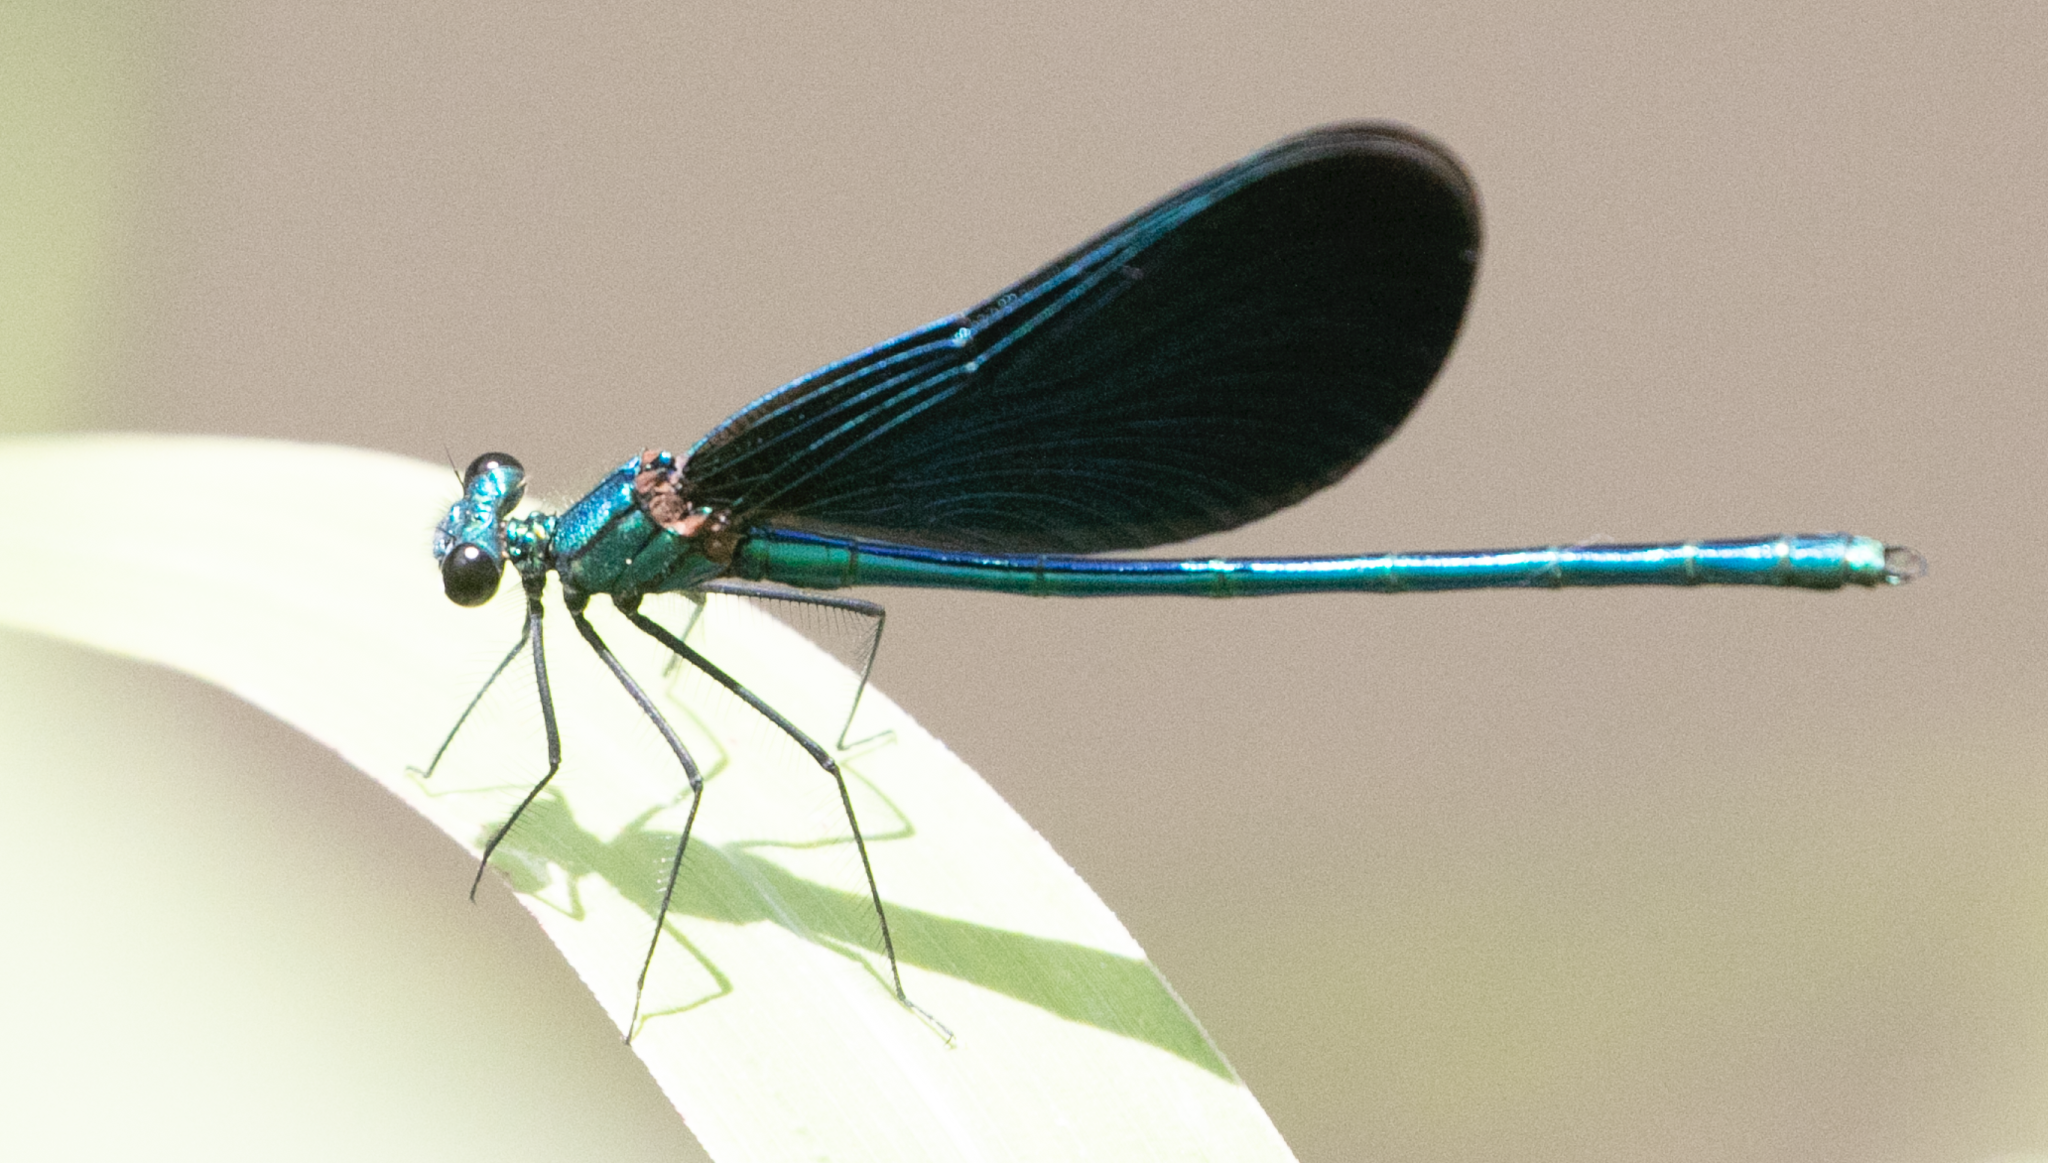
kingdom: Animalia
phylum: Arthropoda
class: Insecta
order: Odonata
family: Calopterygidae
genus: Calopteryx
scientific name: Calopteryx virgo
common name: Beautiful demoiselle
